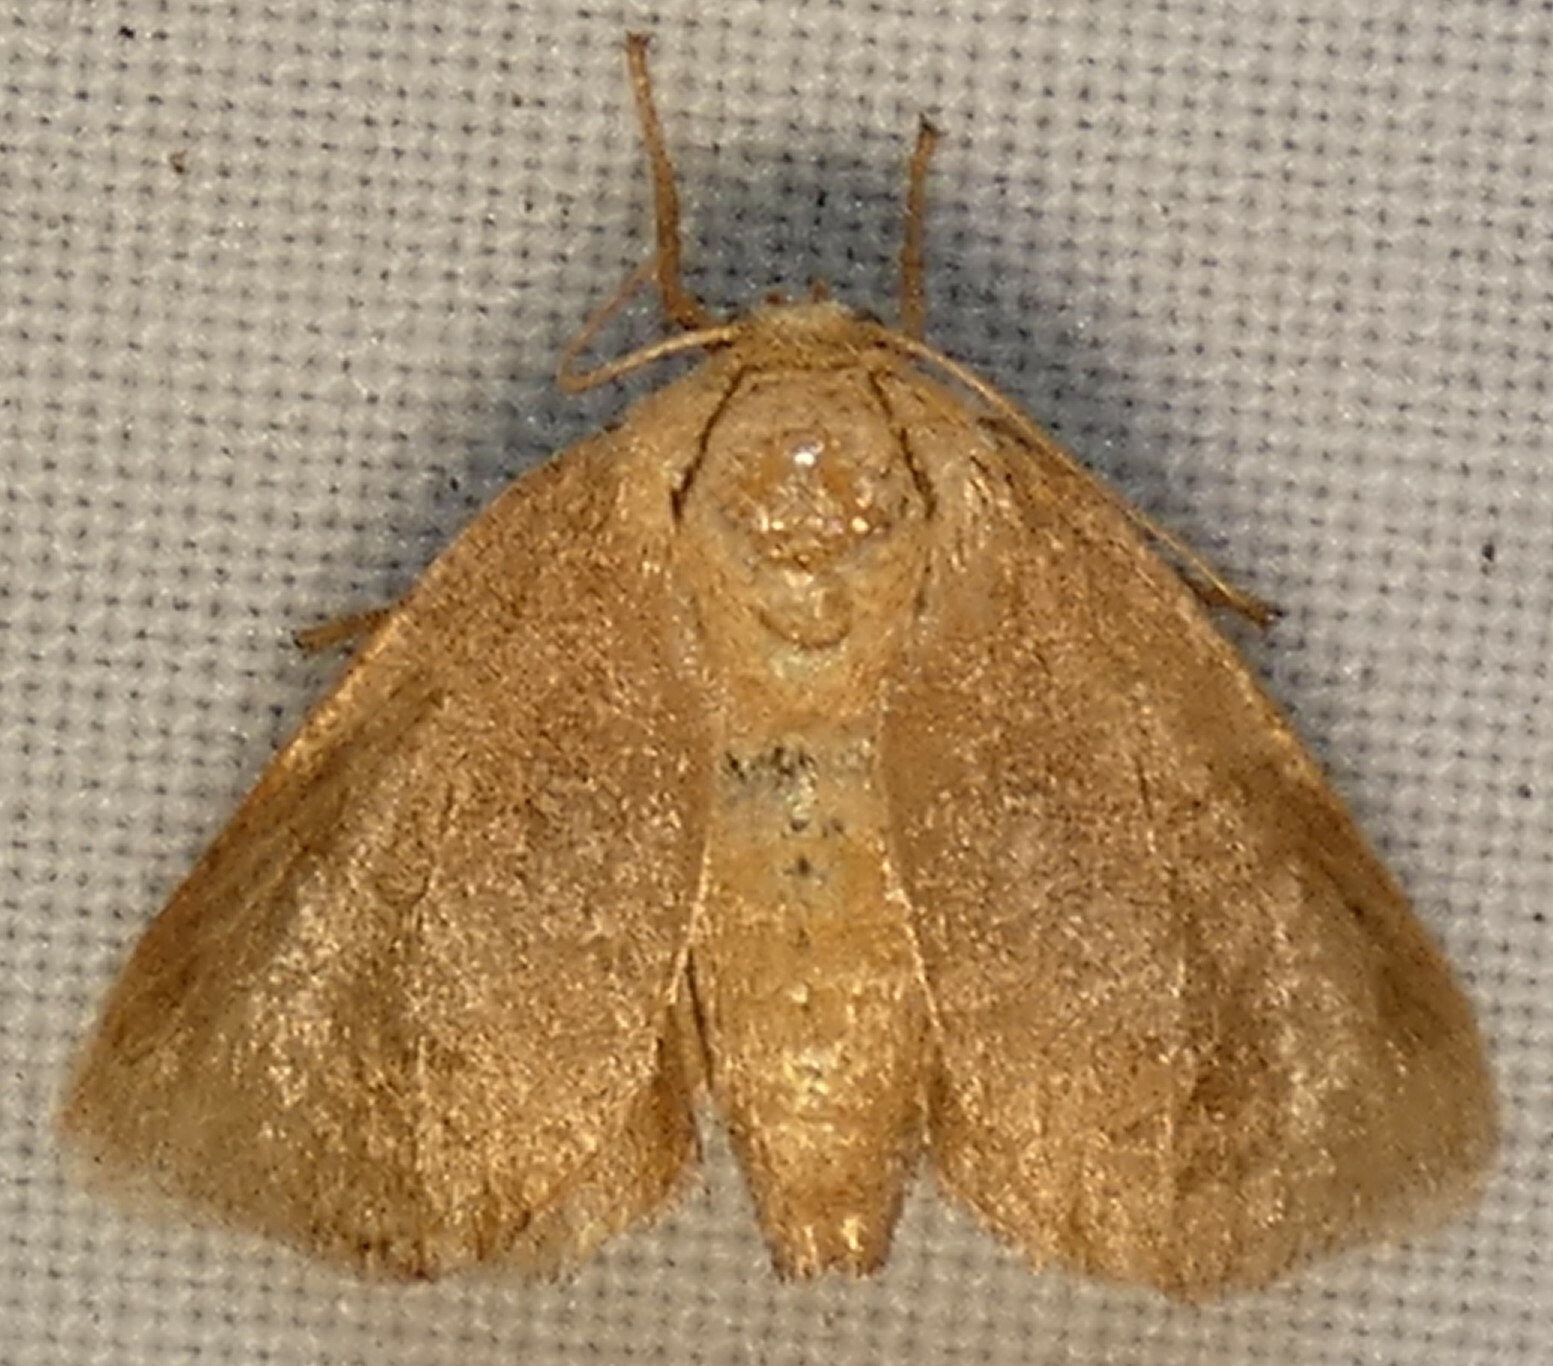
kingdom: Animalia
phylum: Arthropoda
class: Insecta
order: Lepidoptera
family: Limacodidae
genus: Isa
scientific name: Isa textula
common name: Crowned slug moth
